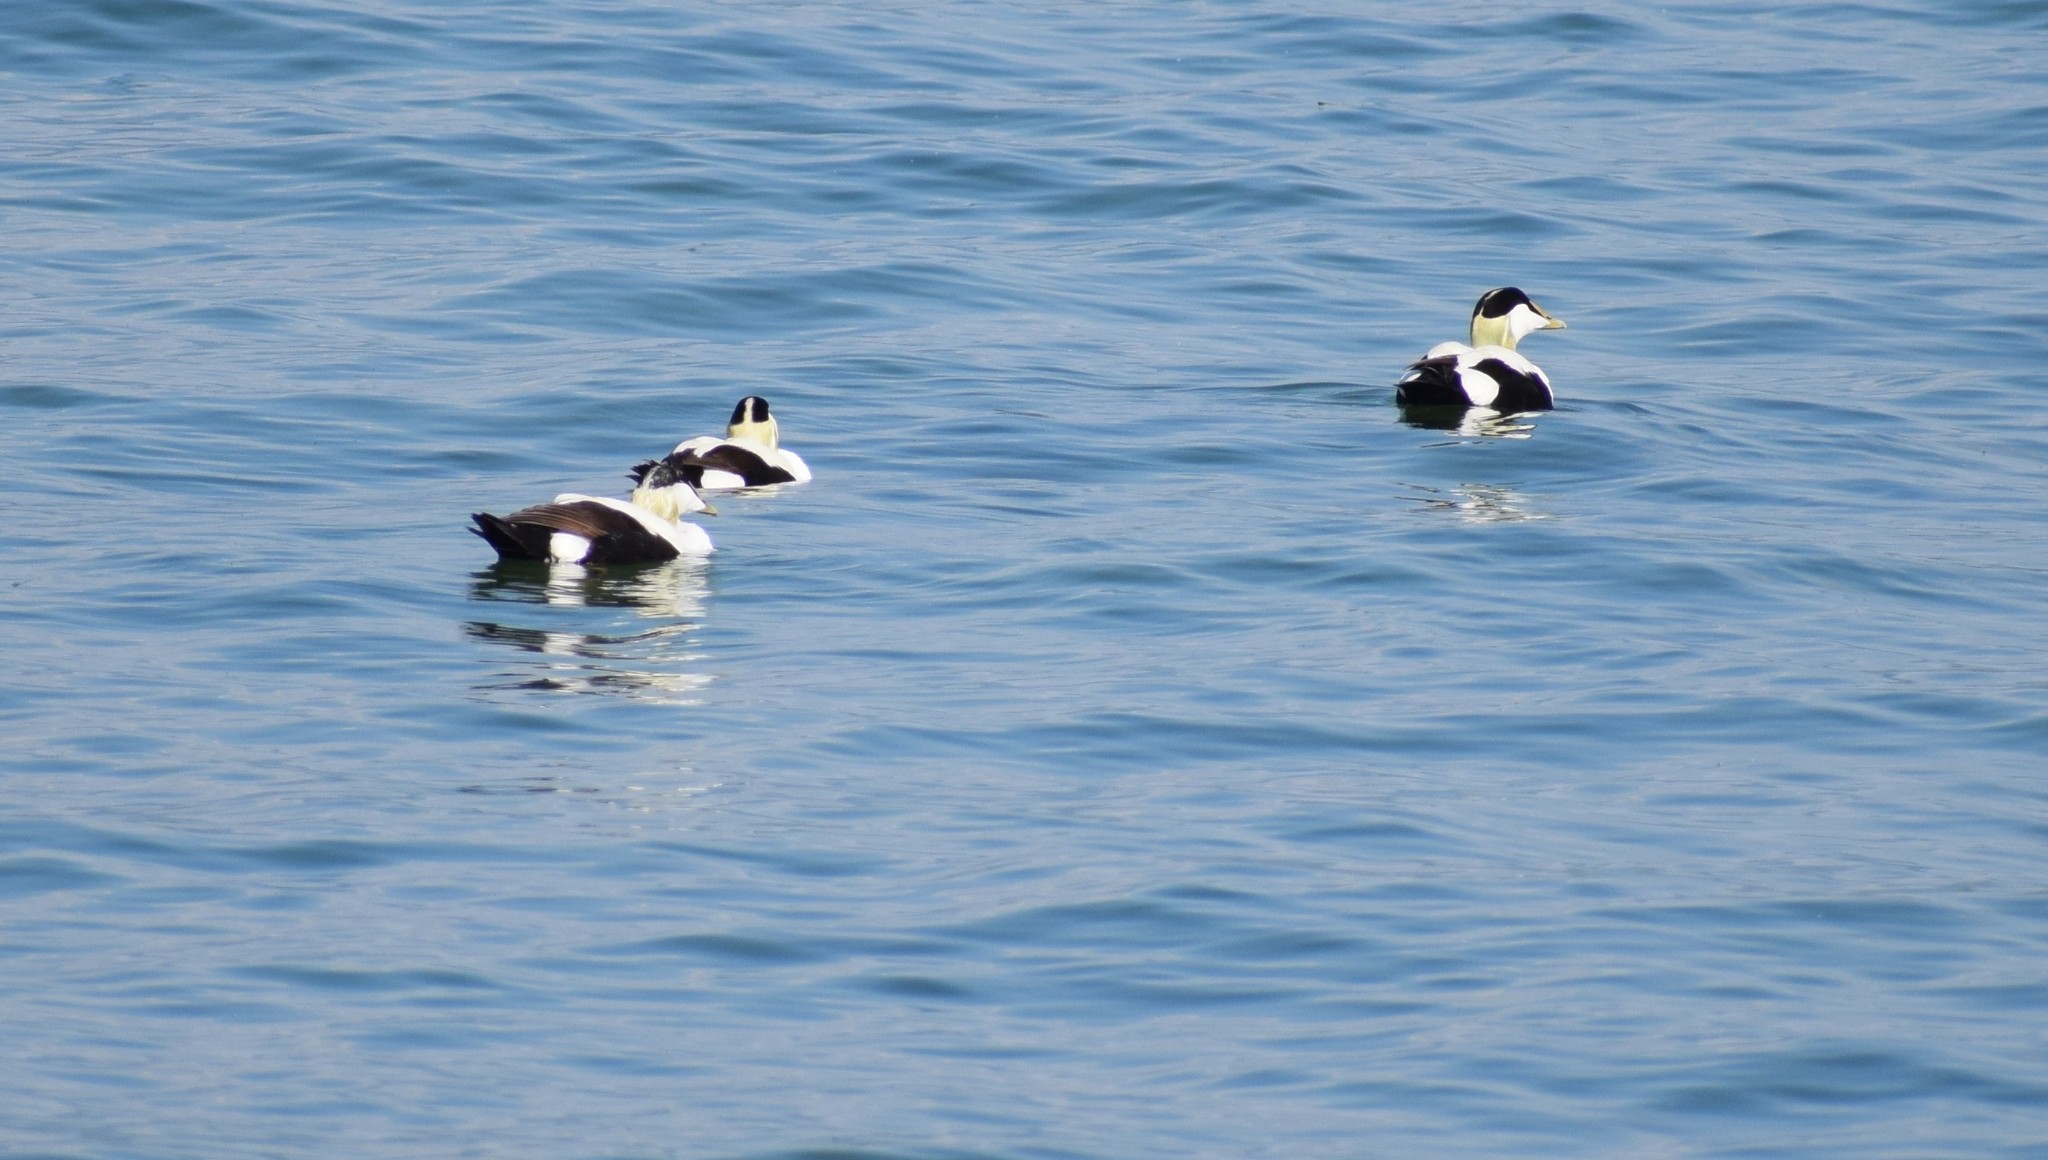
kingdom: Animalia
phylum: Chordata
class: Aves
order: Anseriformes
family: Anatidae
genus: Somateria
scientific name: Somateria mollissima
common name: Common eider
